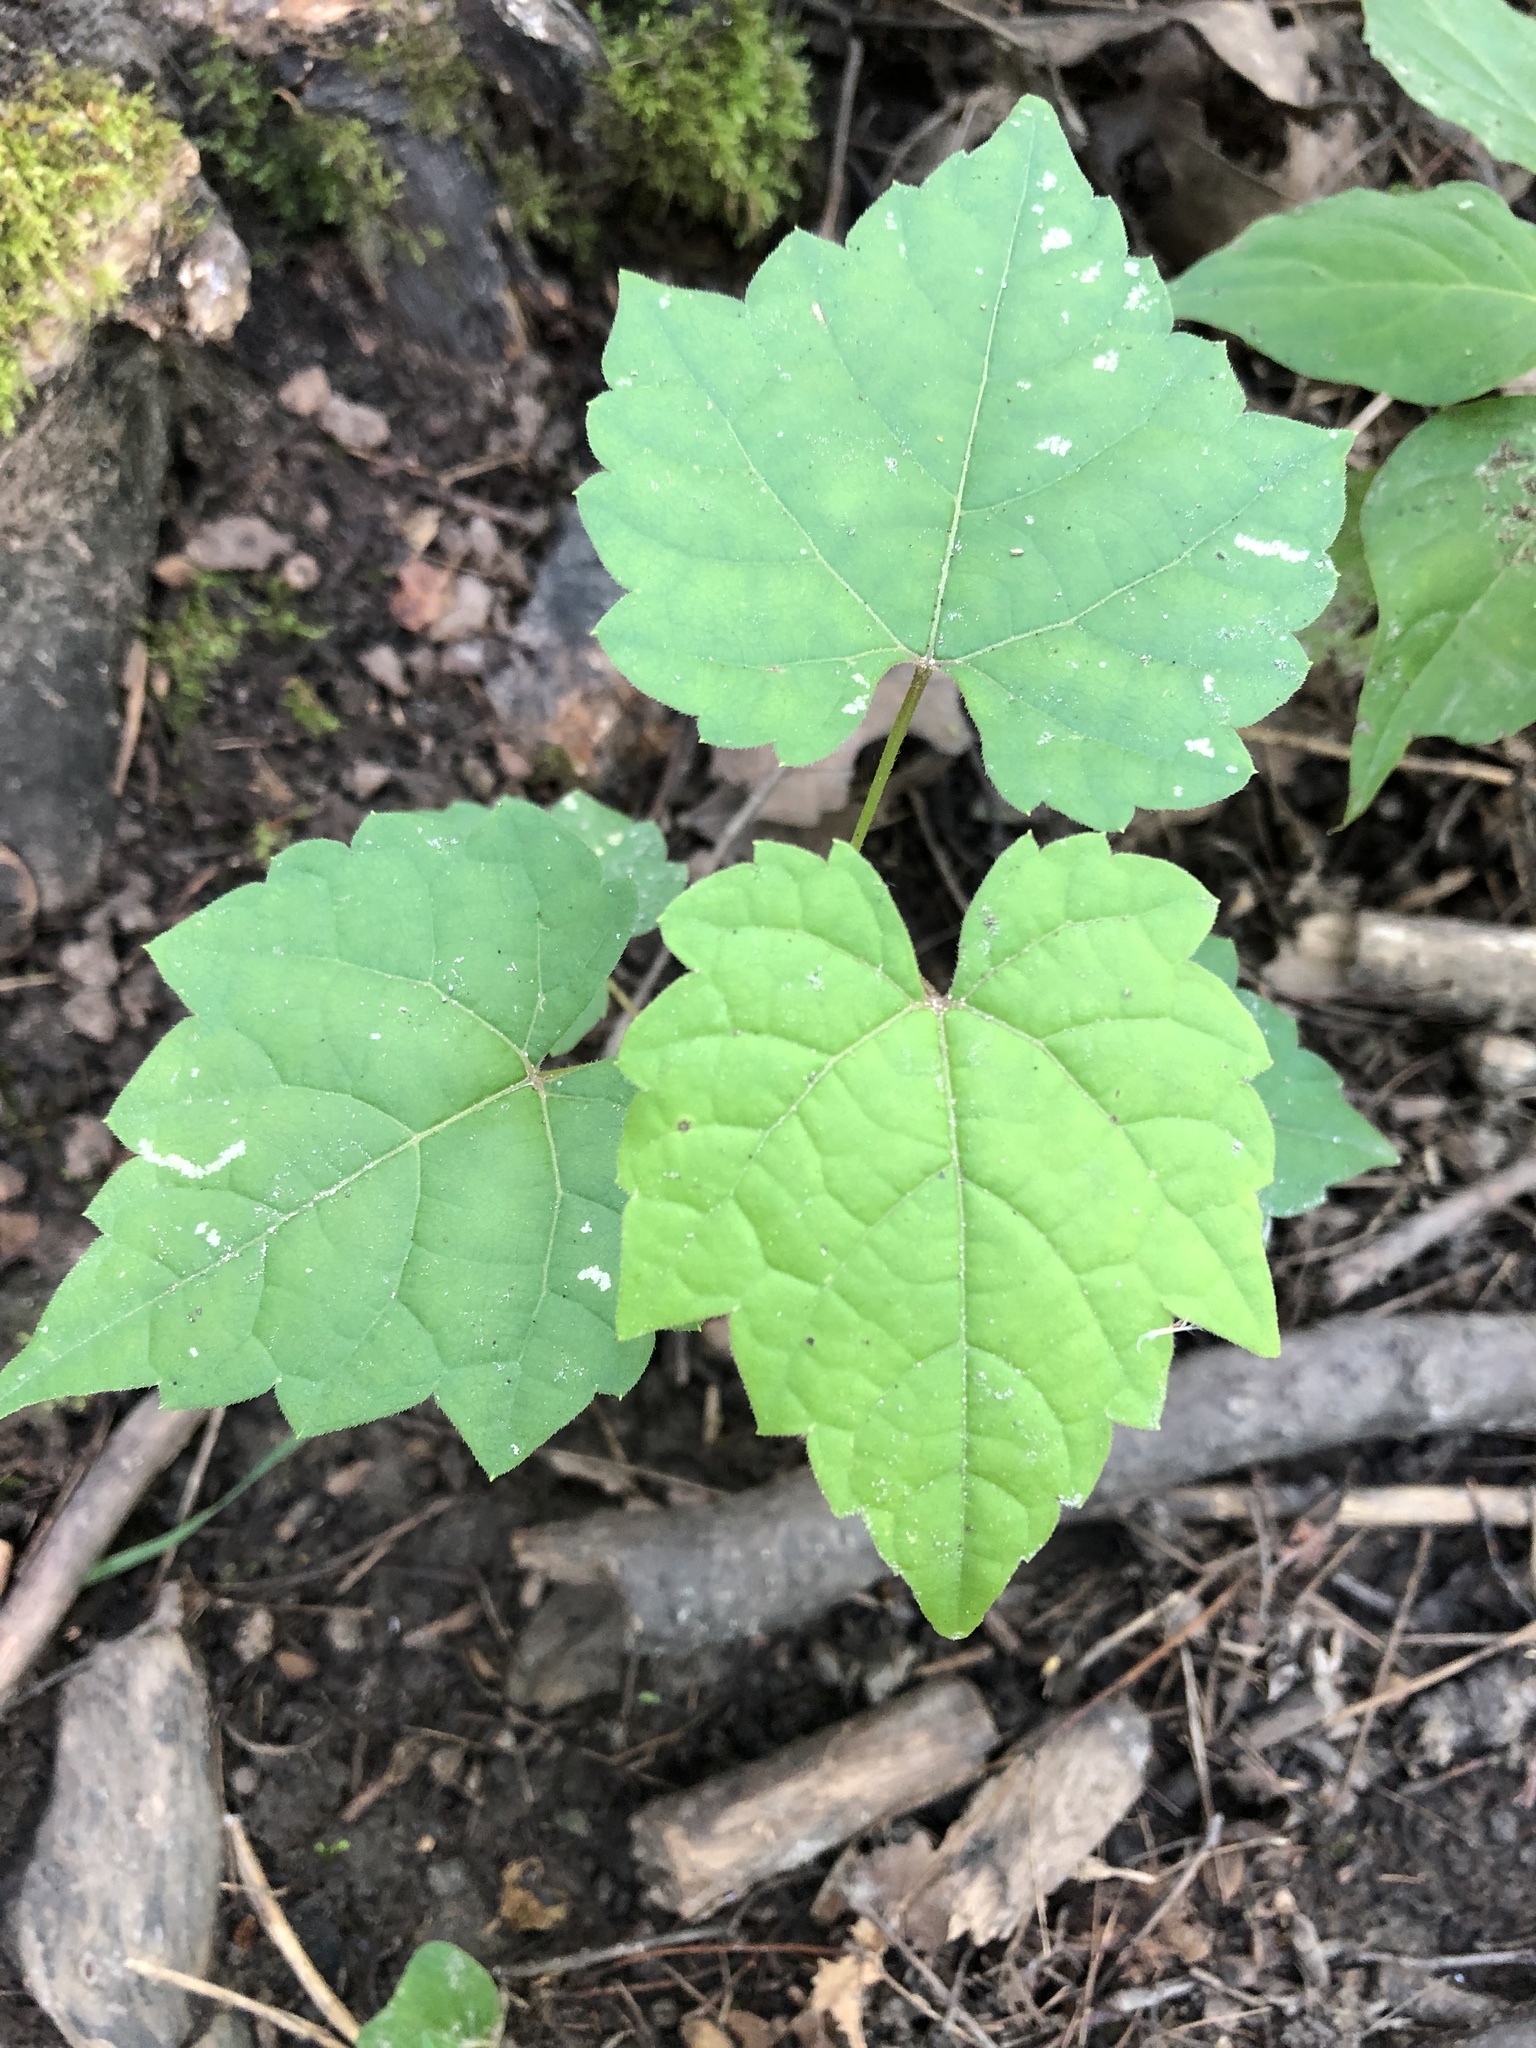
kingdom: Plantae
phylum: Tracheophyta
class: Magnoliopsida
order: Vitales
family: Vitaceae
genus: Vitis
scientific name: Vitis riparia
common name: Frost grape
